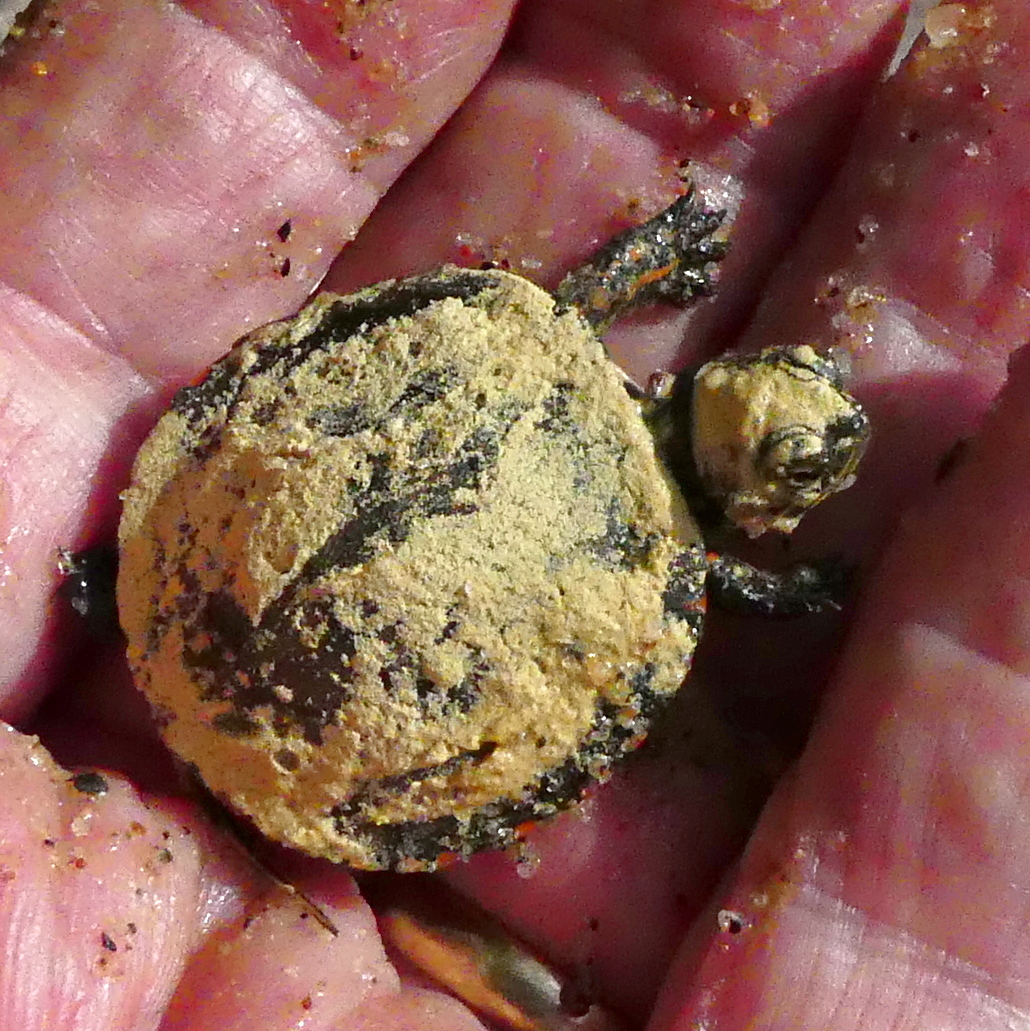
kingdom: Animalia
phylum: Chordata
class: Testudines
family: Emydidae
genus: Chrysemys
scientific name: Chrysemys picta
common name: Painted turtle
